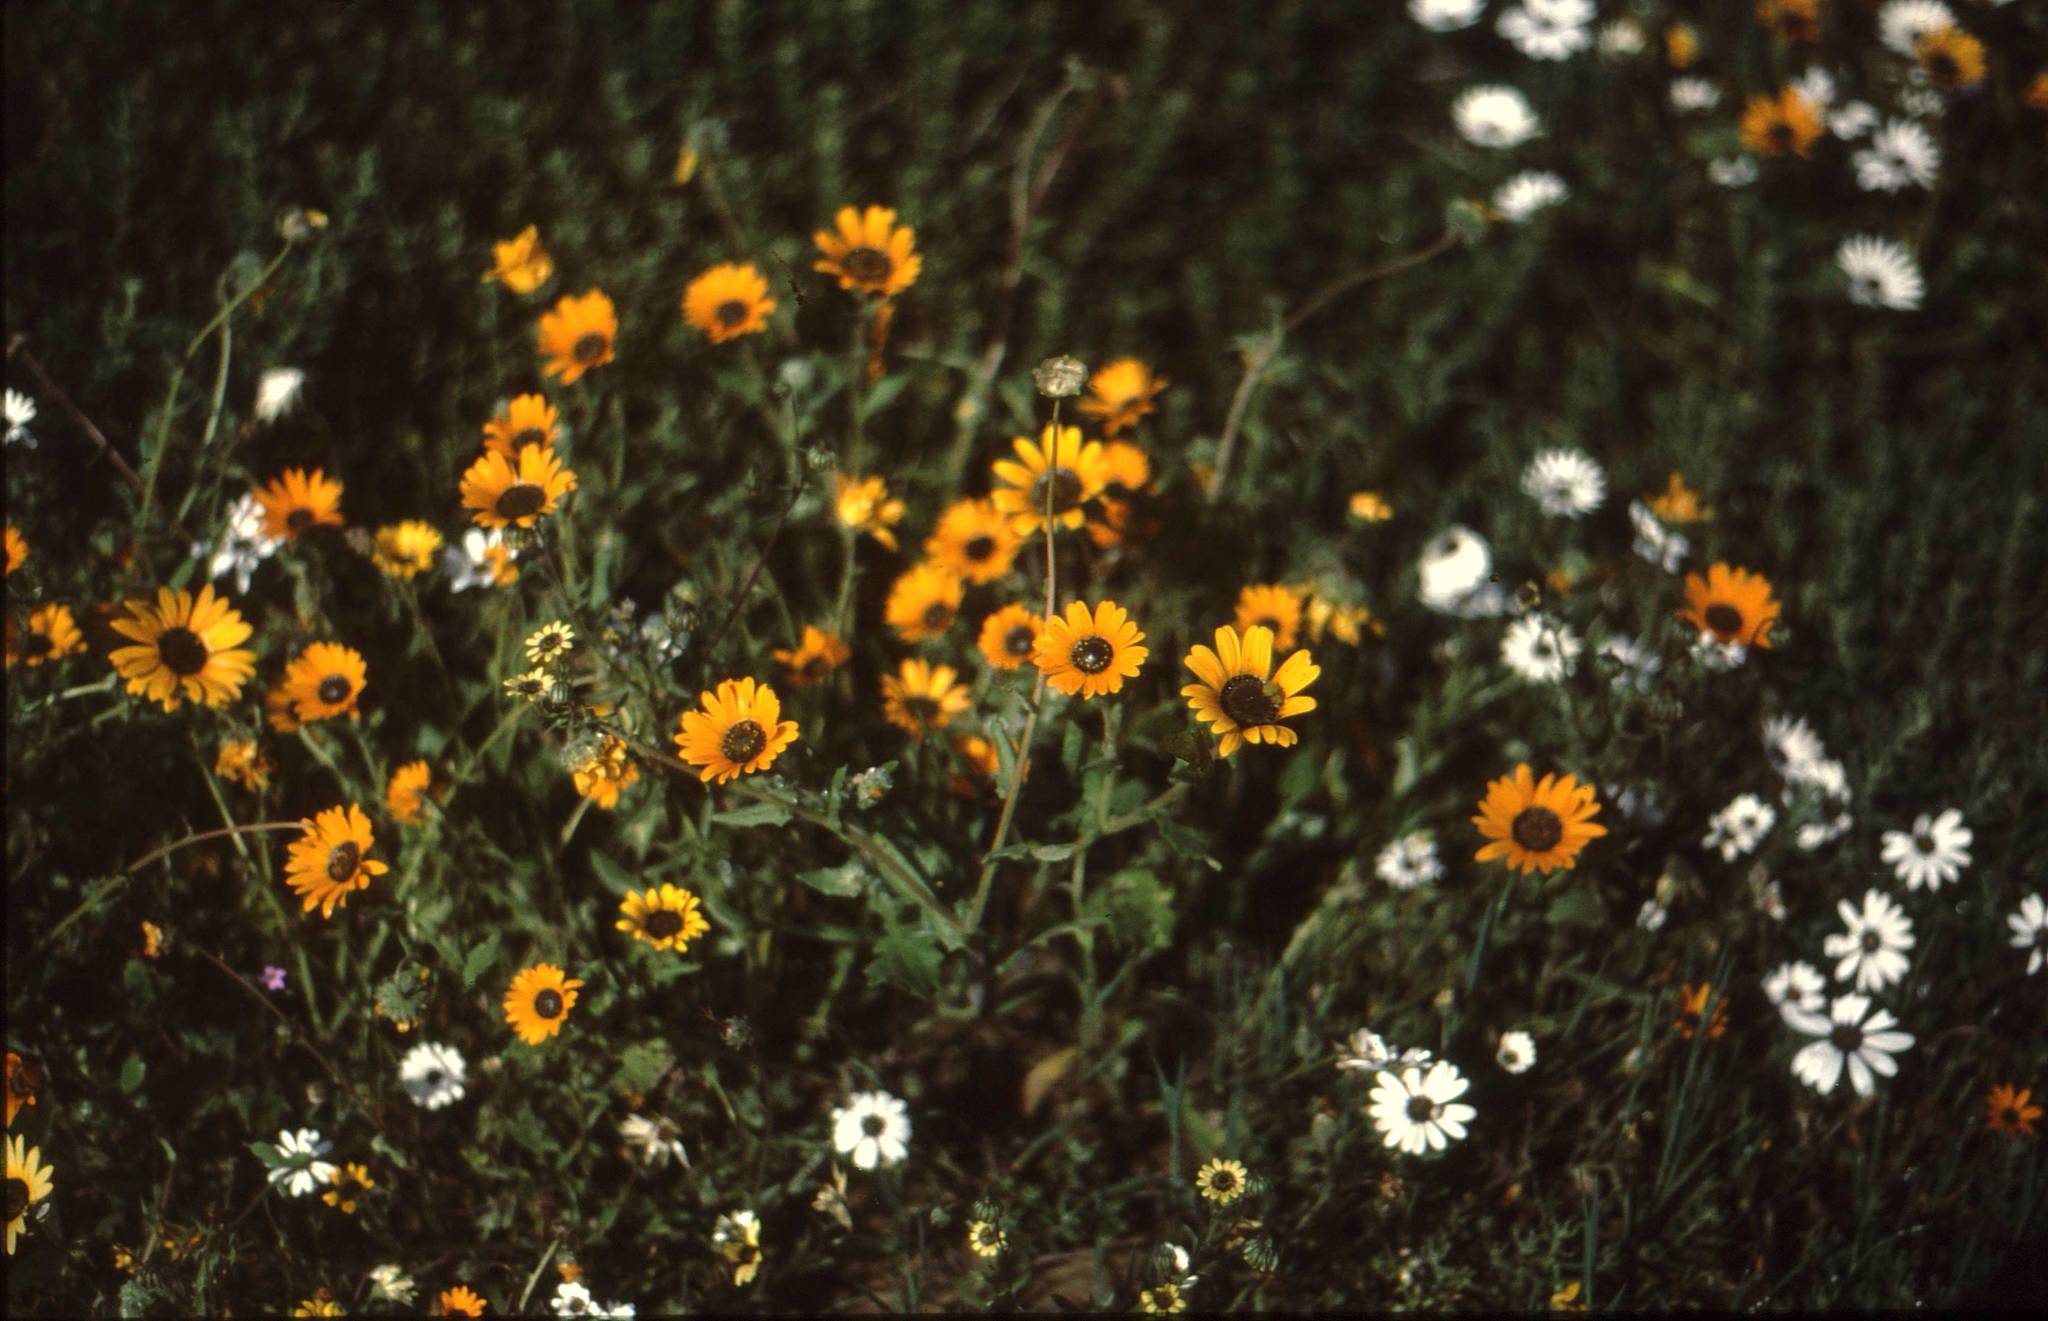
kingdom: Plantae
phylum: Tracheophyta
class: Magnoliopsida
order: Asterales
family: Asteraceae
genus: Arctotis
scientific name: Arctotis hirsuta
